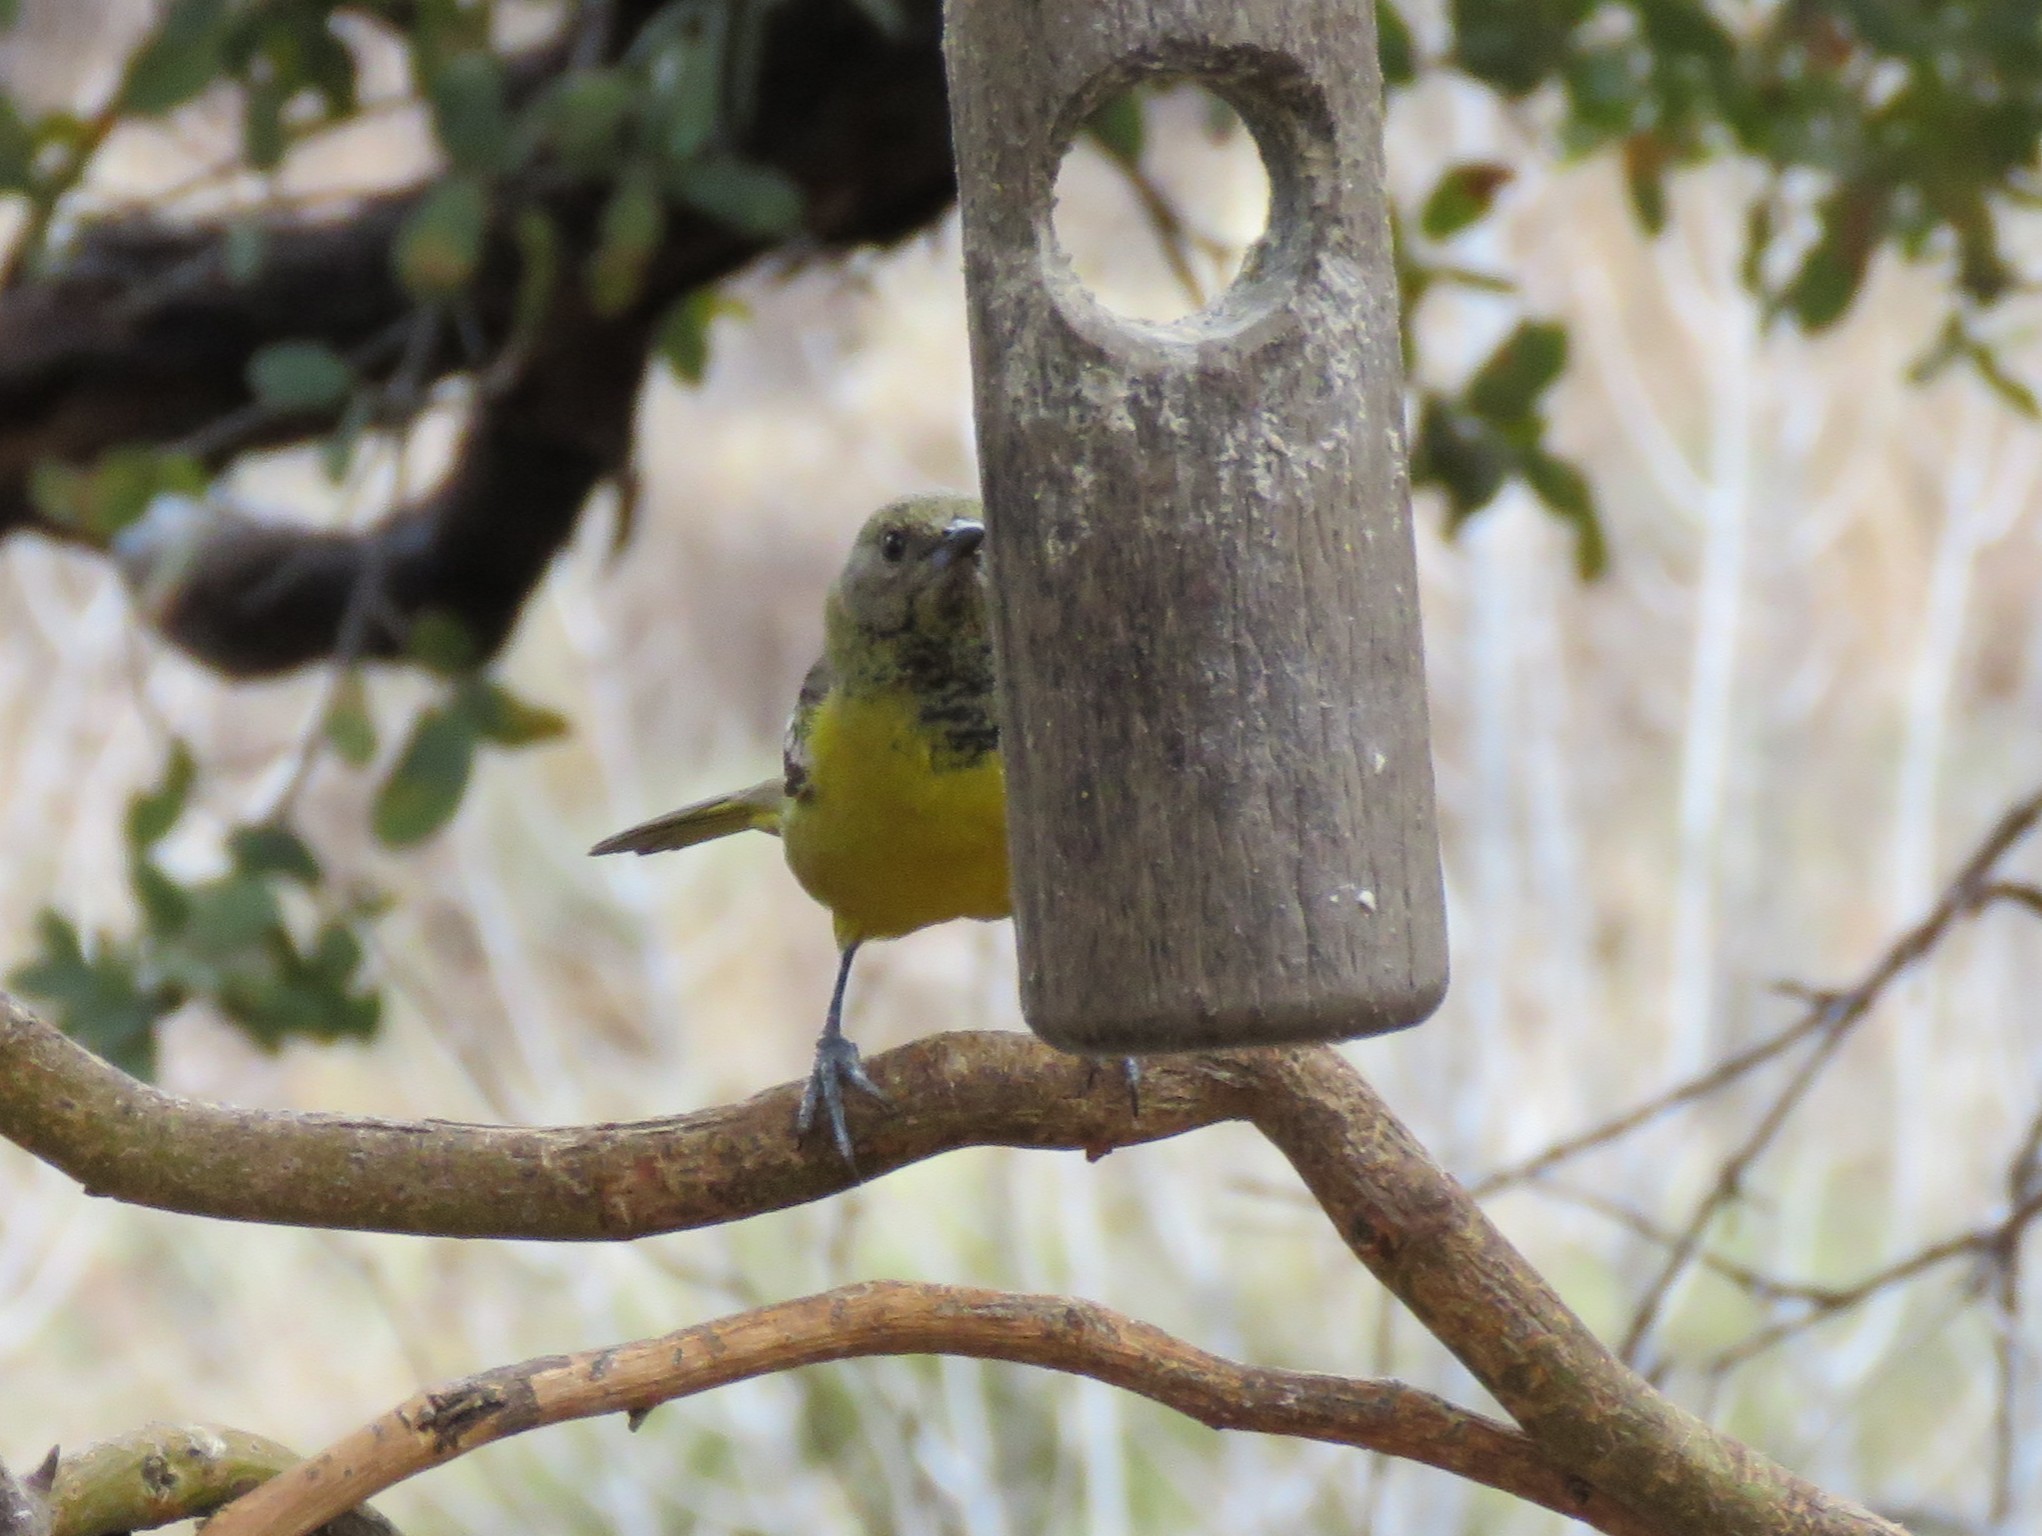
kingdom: Animalia
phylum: Chordata
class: Aves
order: Passeriformes
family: Icteridae
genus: Icterus
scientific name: Icterus parisorum
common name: Scott's oriole
